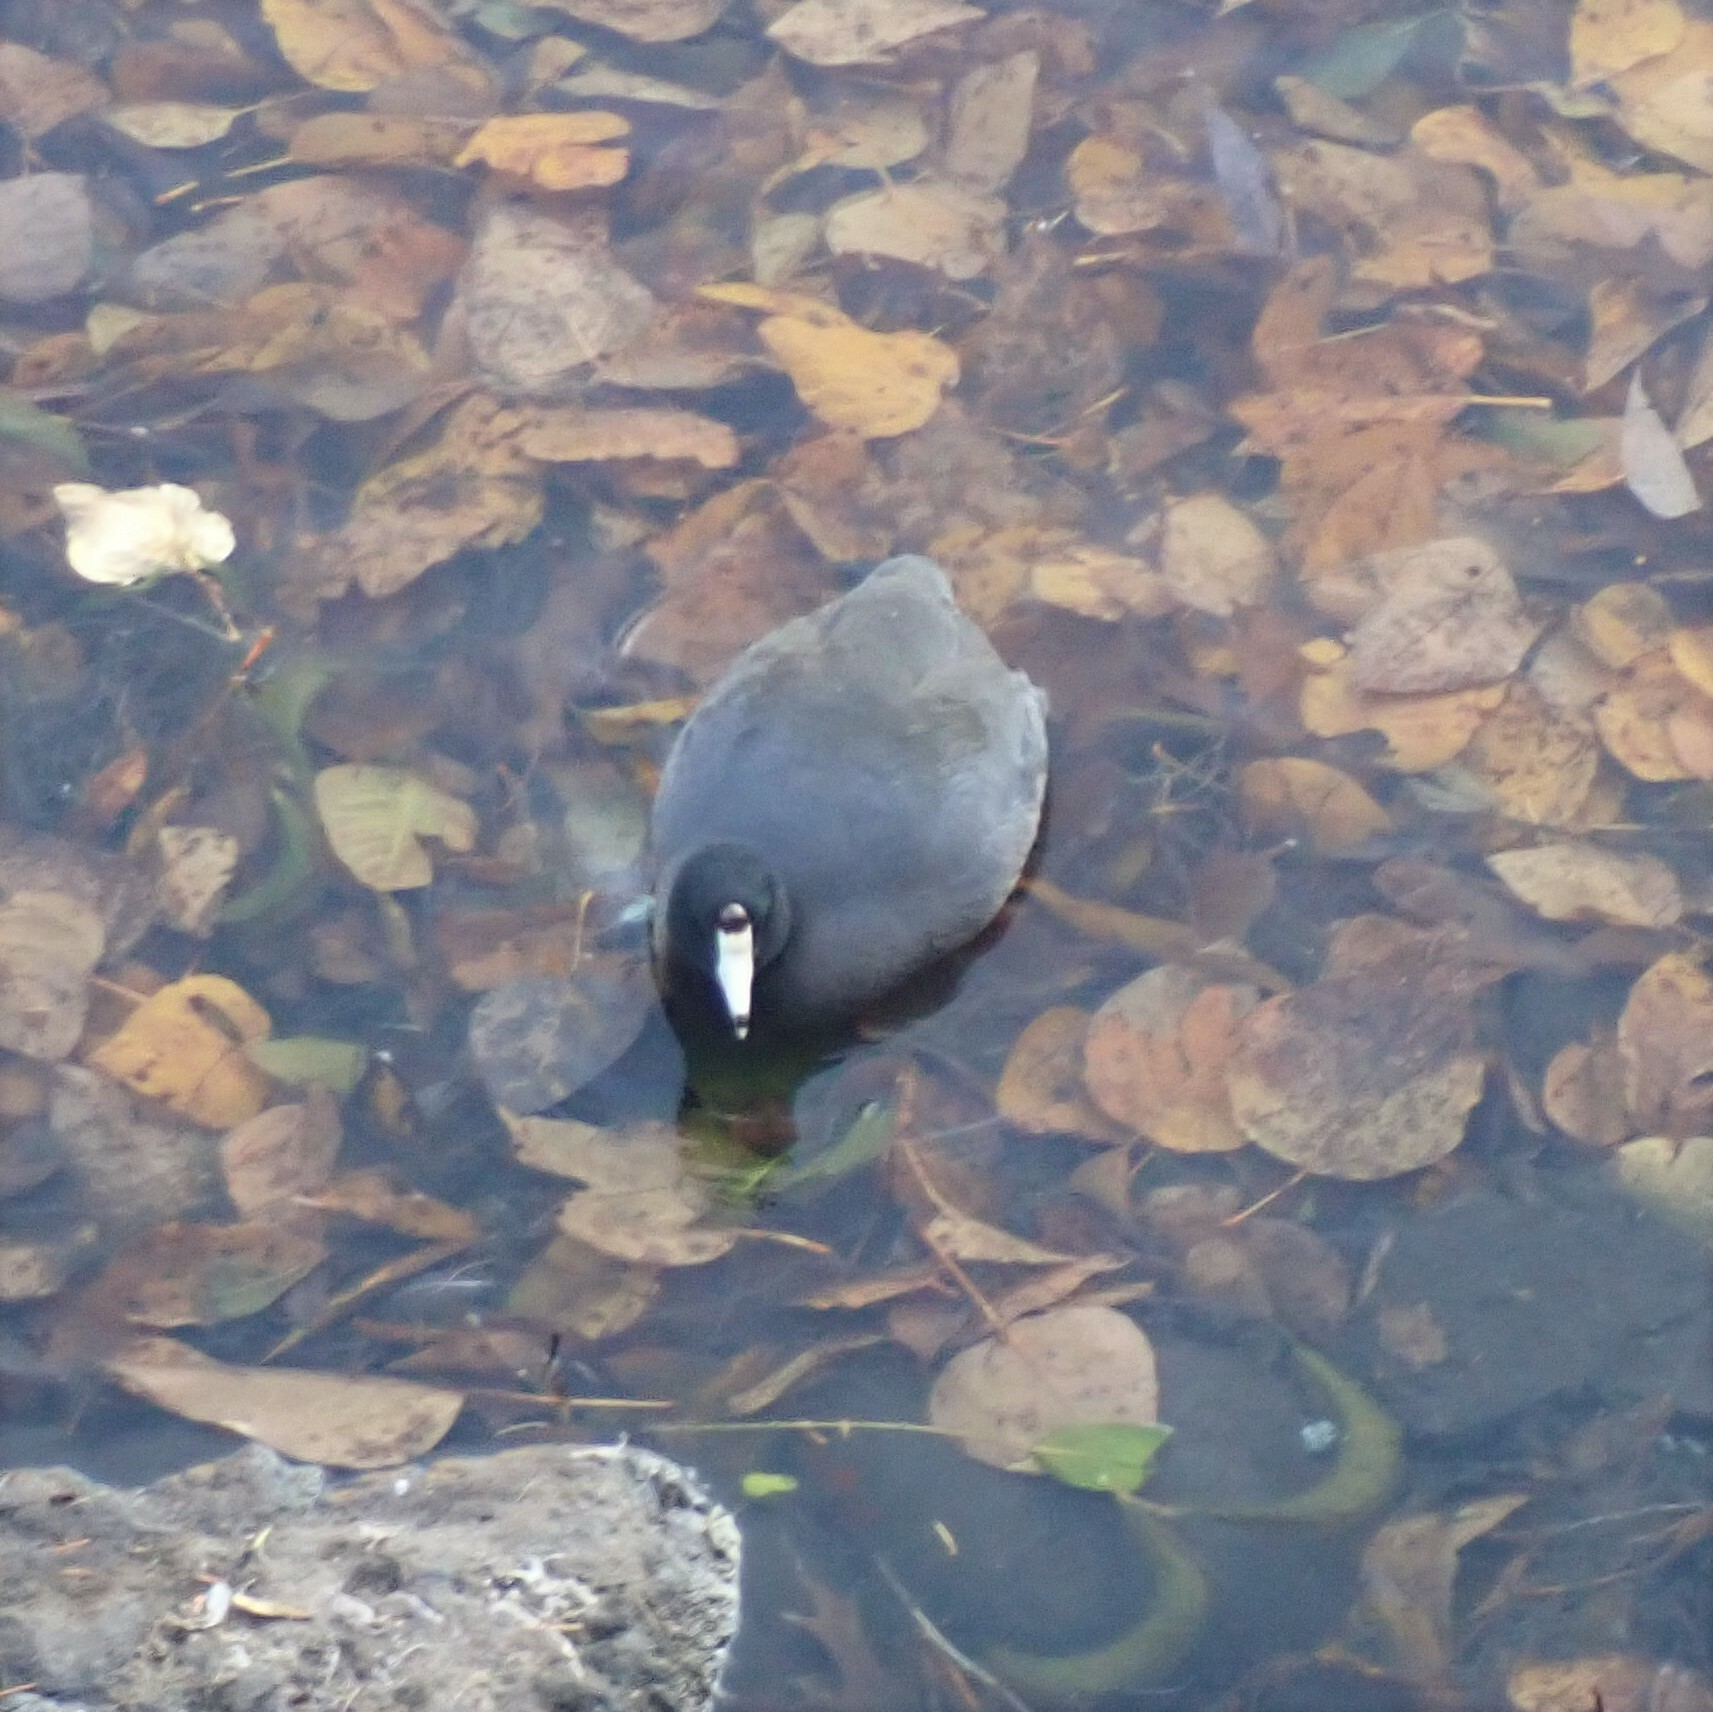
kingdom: Animalia
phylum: Chordata
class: Aves
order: Gruiformes
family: Rallidae
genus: Fulica
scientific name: Fulica americana
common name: American coot
